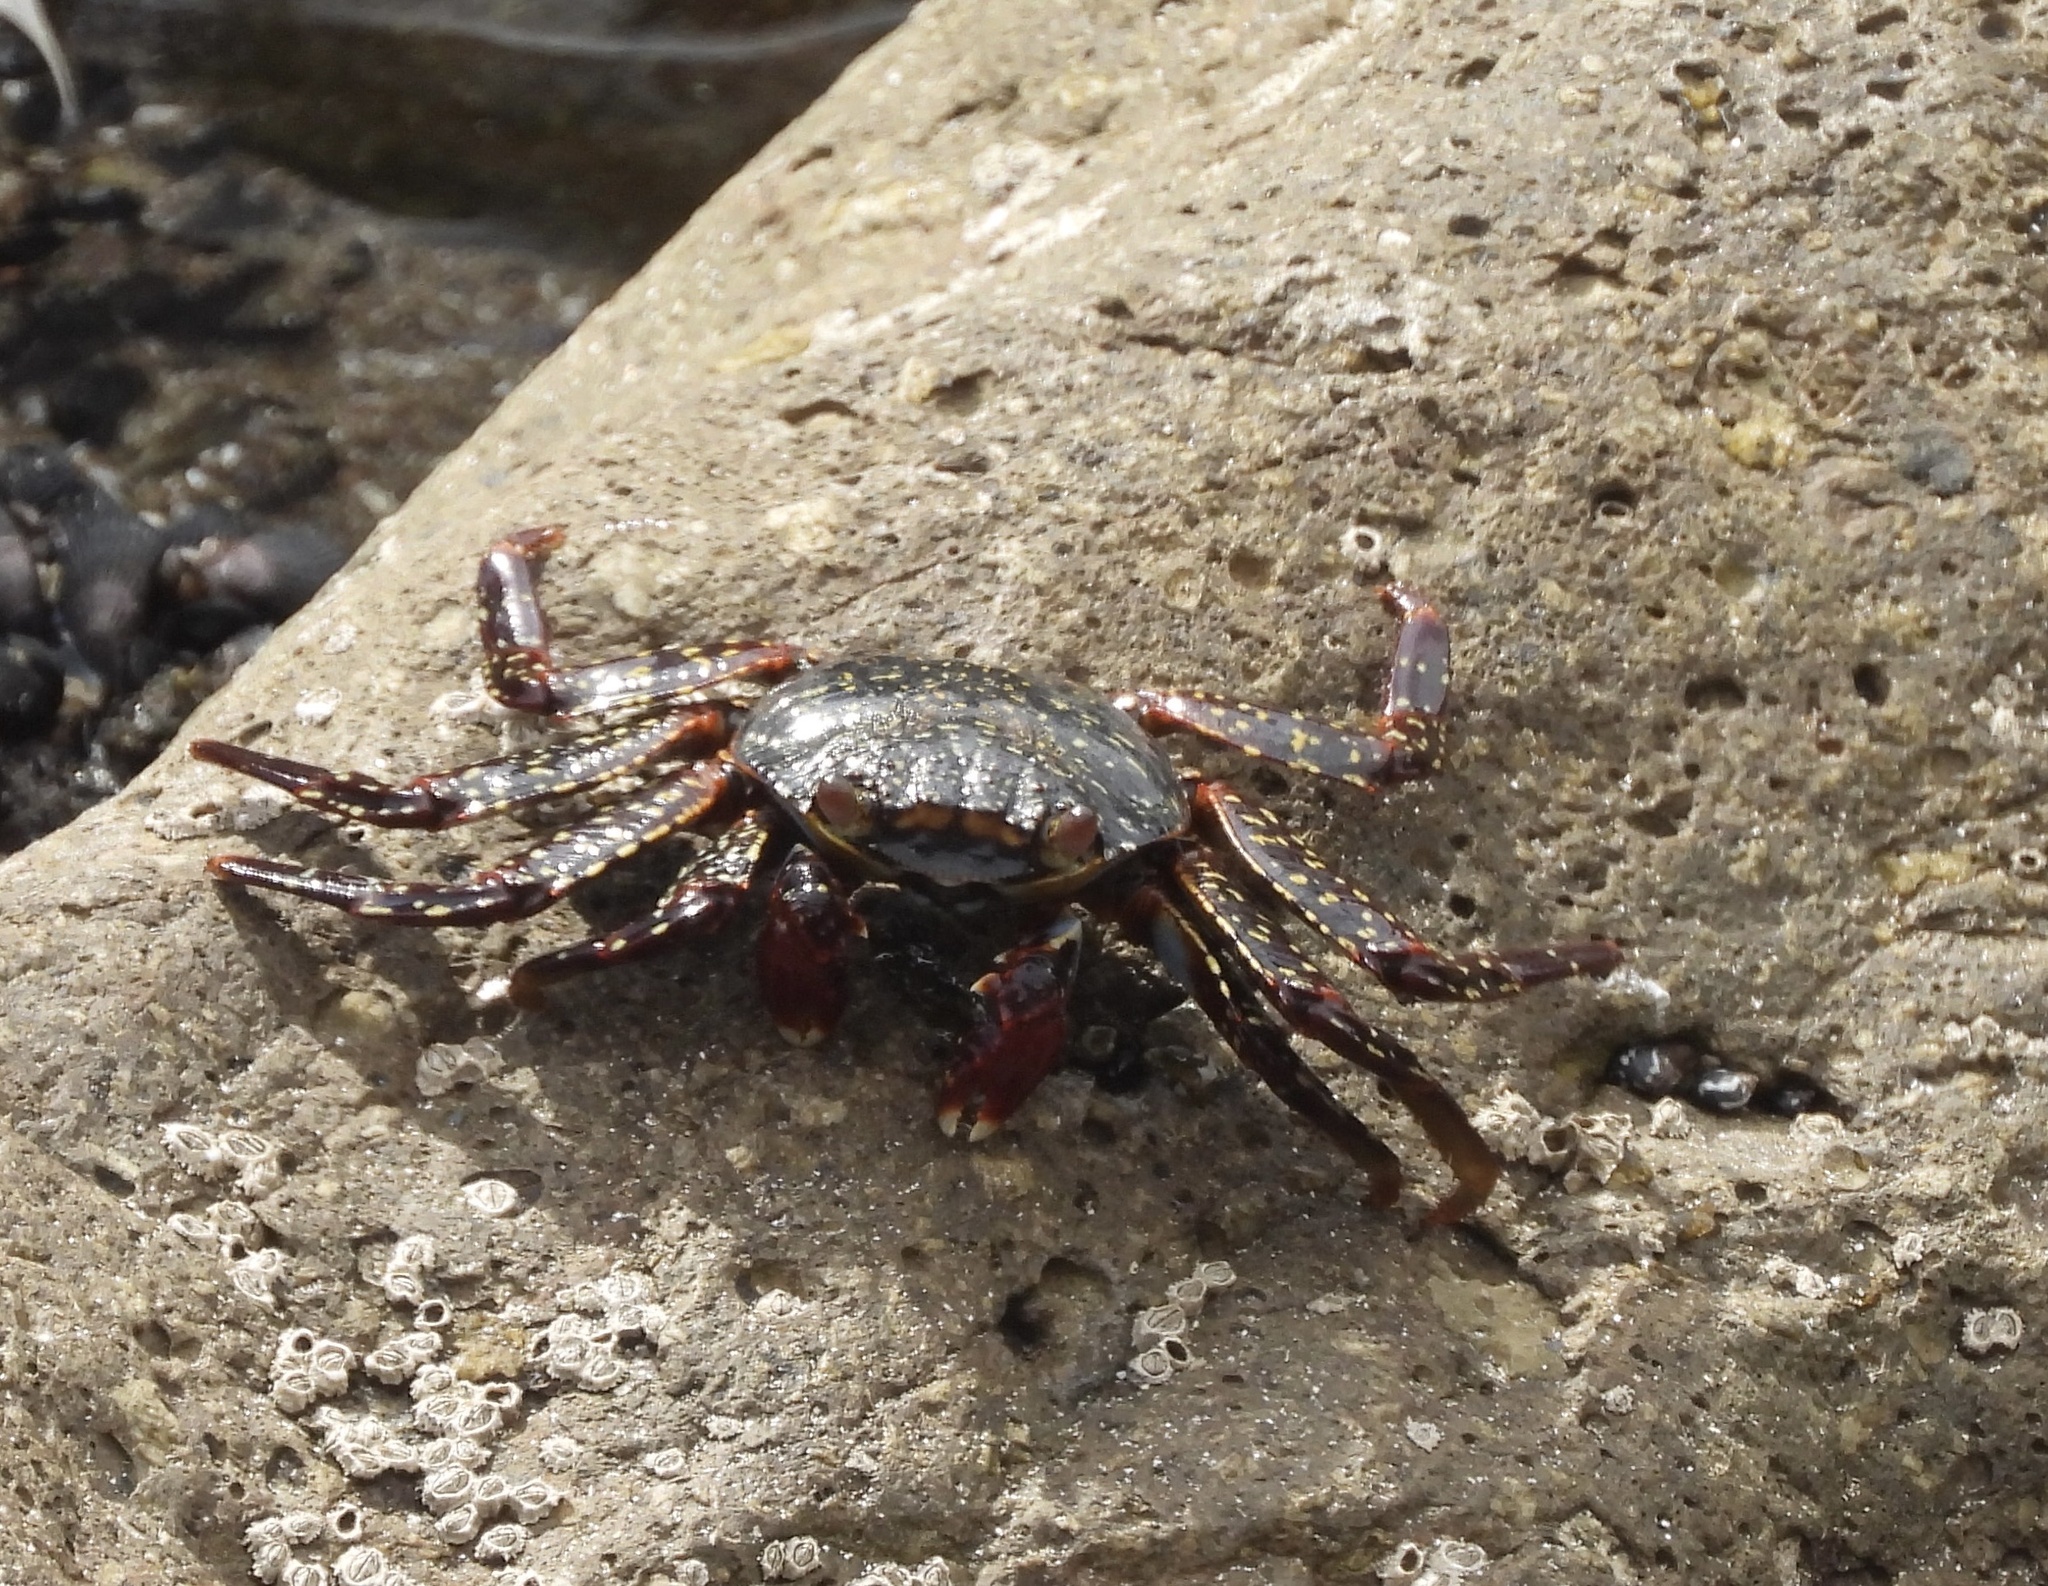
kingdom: Animalia
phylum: Arthropoda
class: Malacostraca
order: Decapoda
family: Grapsidae
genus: Grapsus
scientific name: Grapsus grapsus
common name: Sally lightfoot
